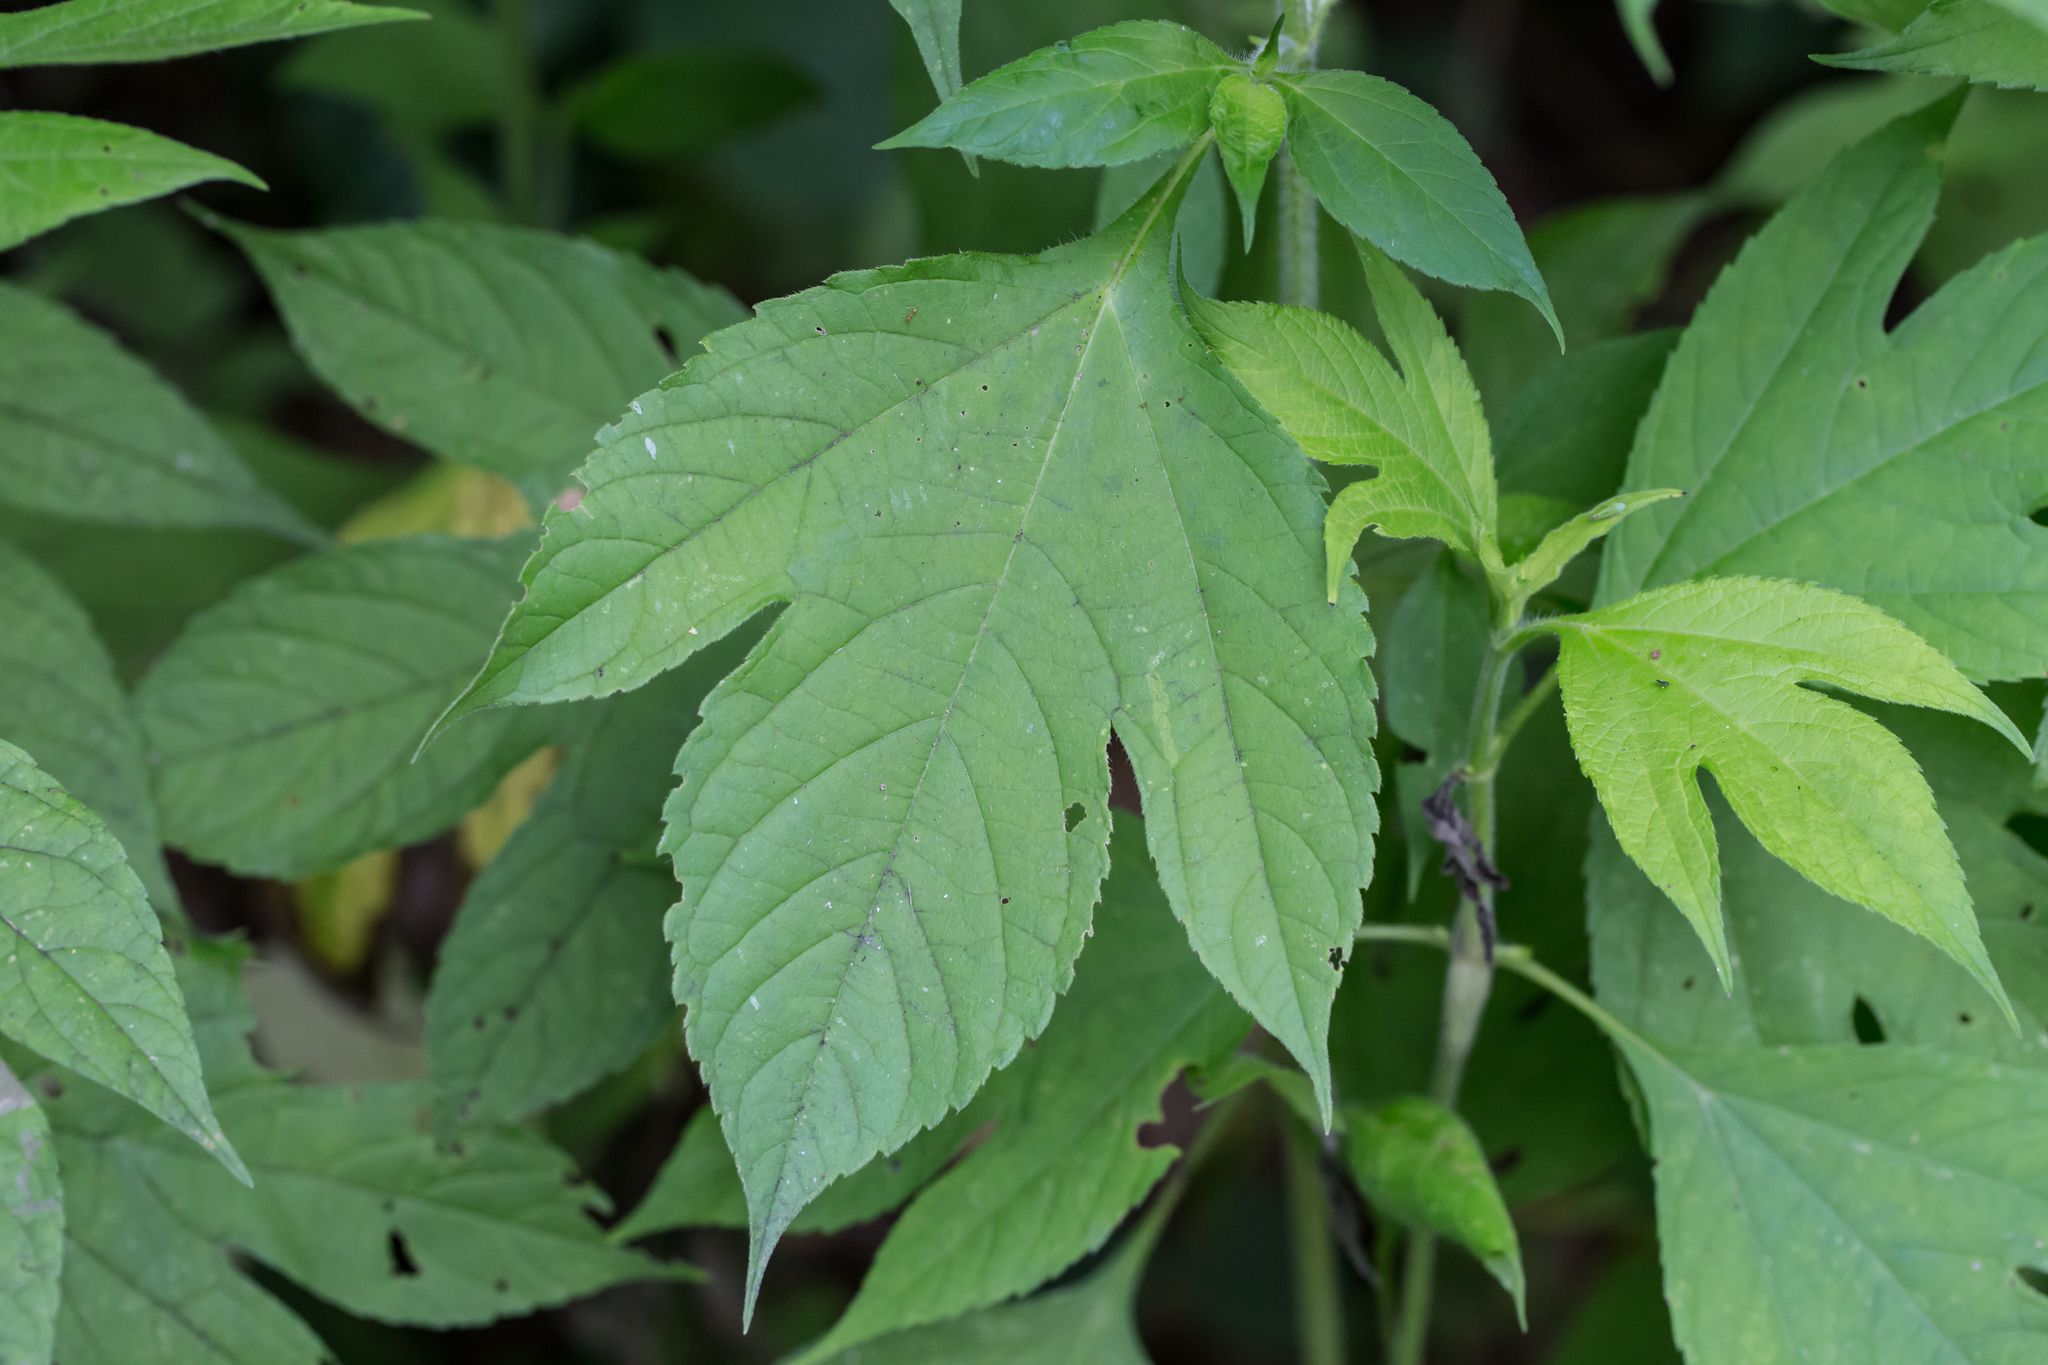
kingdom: Plantae
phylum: Tracheophyta
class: Magnoliopsida
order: Asterales
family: Asteraceae
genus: Ambrosia
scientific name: Ambrosia trifida
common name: Giant ragweed
